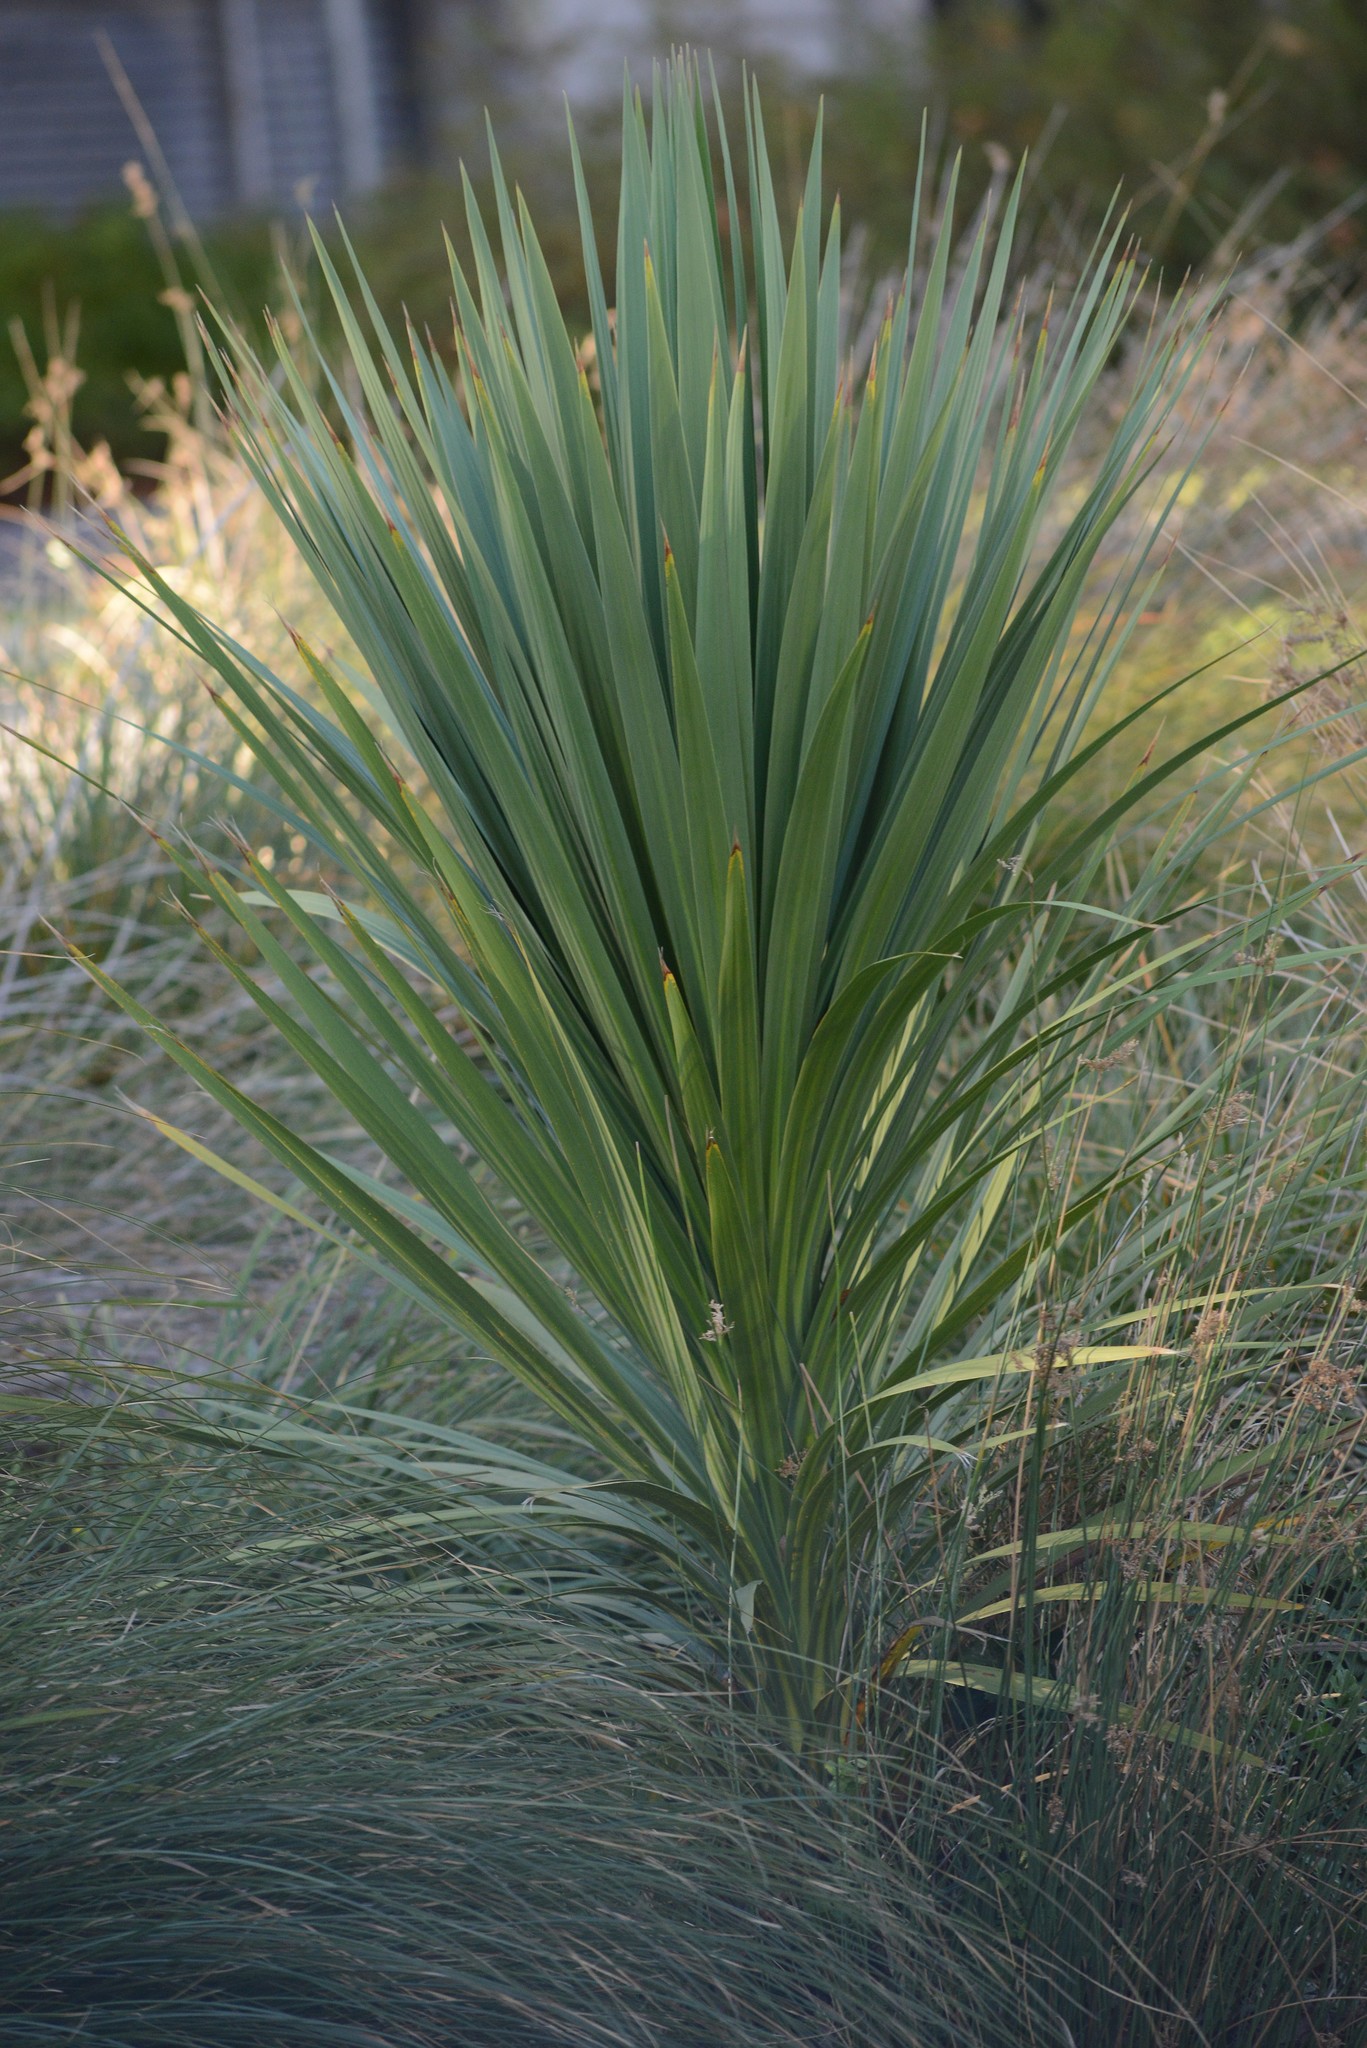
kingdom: Plantae
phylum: Tracheophyta
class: Liliopsida
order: Asparagales
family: Asparagaceae
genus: Cordyline
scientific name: Cordyline australis
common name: Cabbage-palm
